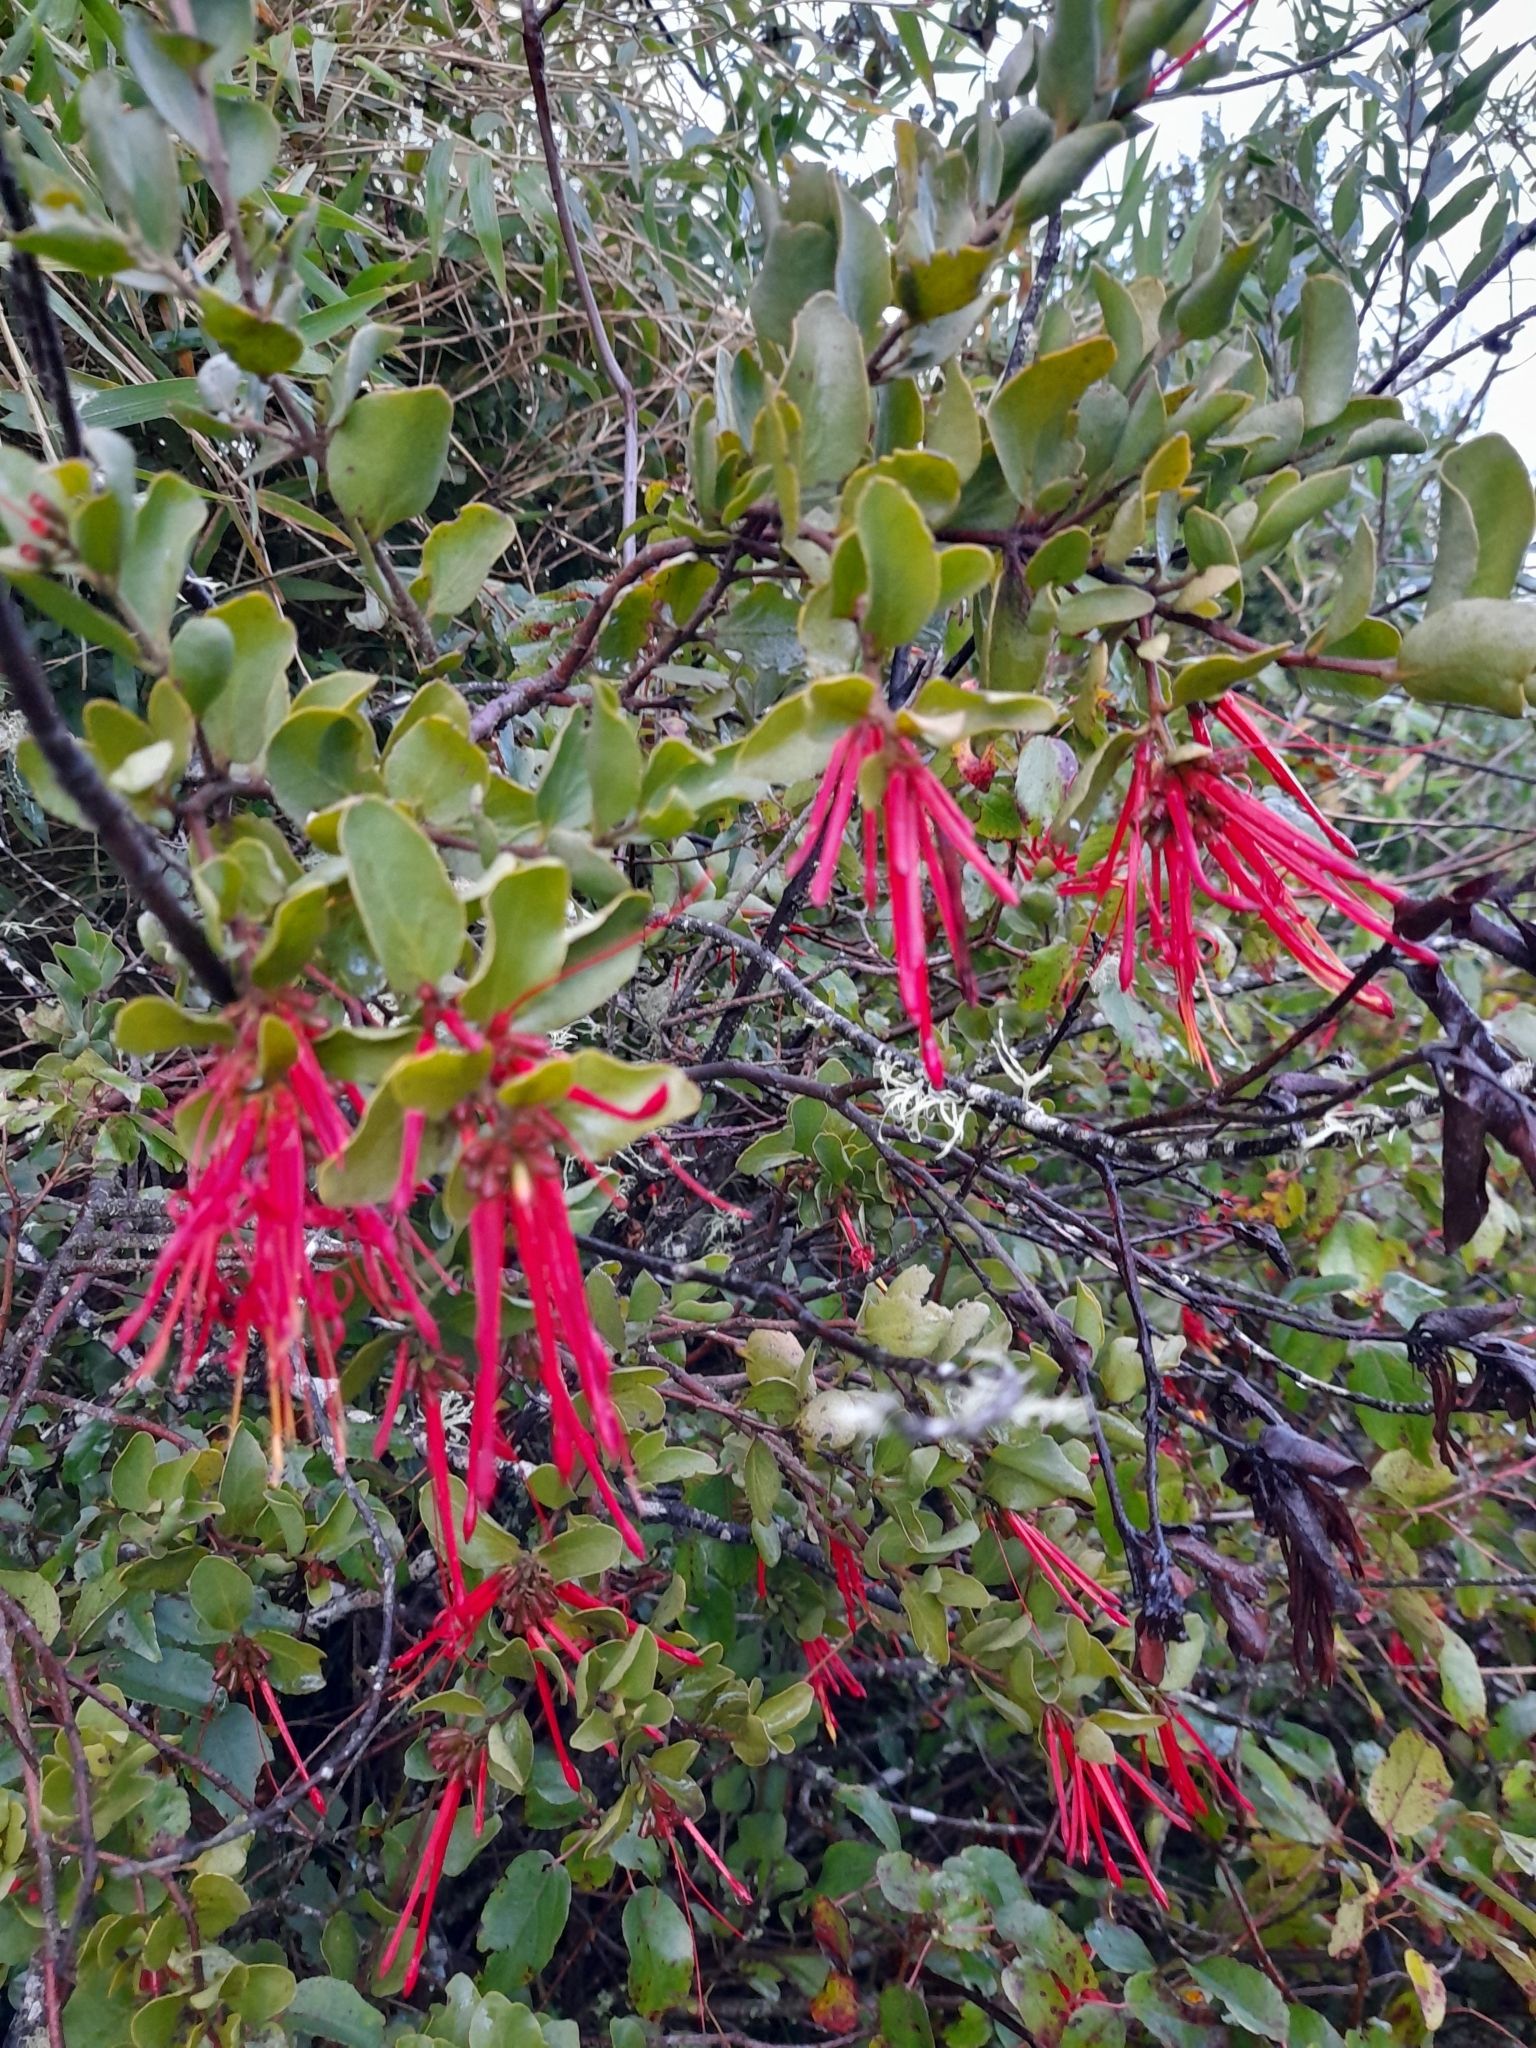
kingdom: Plantae
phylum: Tracheophyta
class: Magnoliopsida
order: Santalales
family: Loranthaceae
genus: Tristerix
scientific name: Tristerix corymbosus
